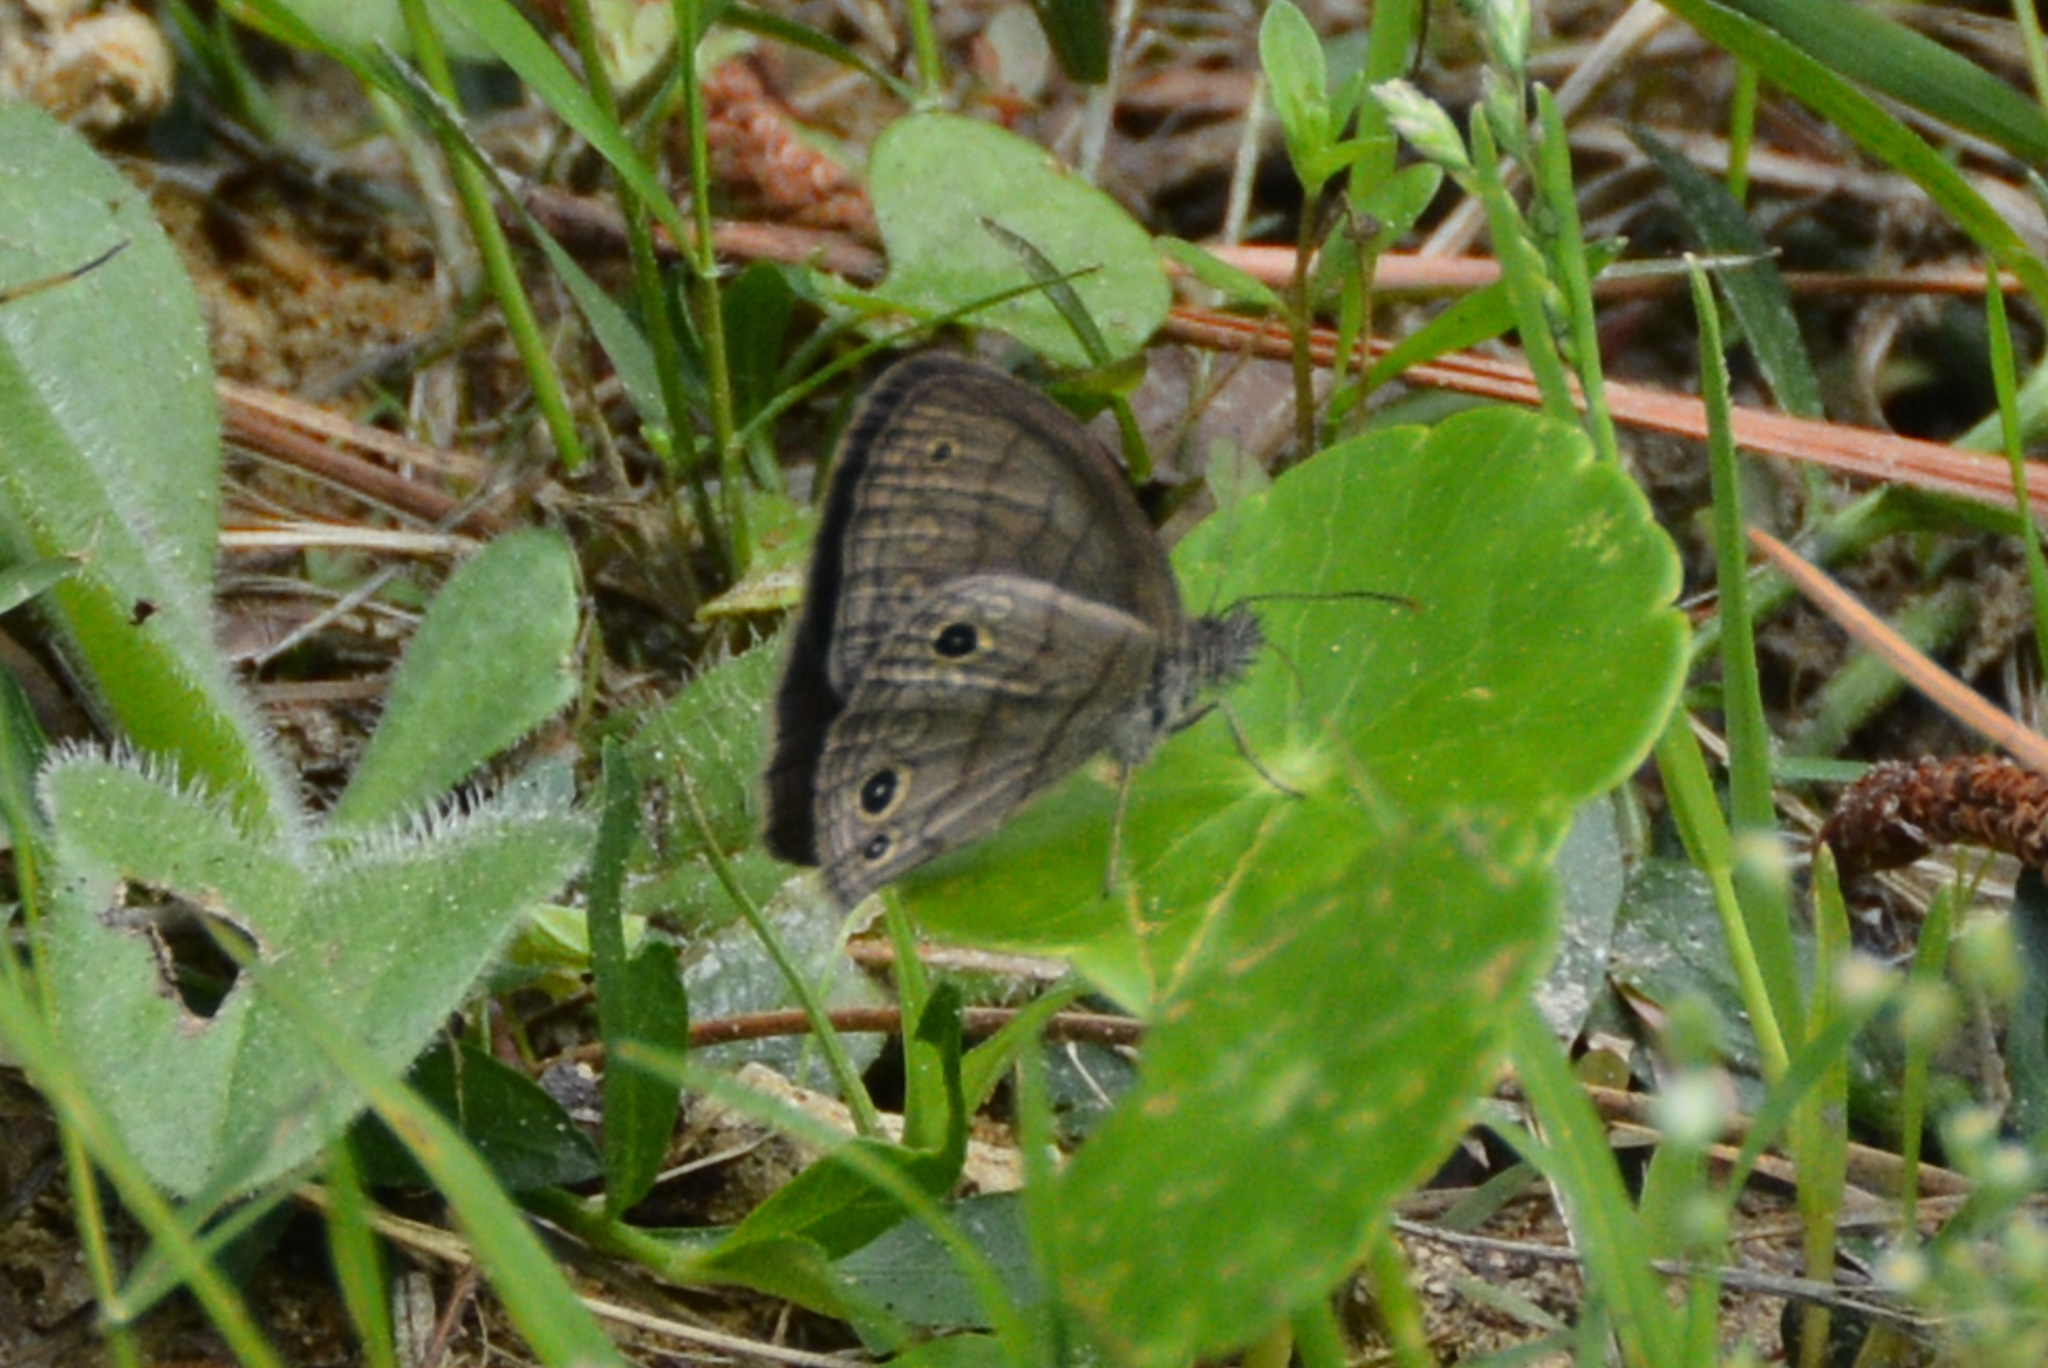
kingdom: Animalia
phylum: Arthropoda
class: Insecta
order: Lepidoptera
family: Nymphalidae
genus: Hermeuptychia
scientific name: Hermeuptychia hermes
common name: Hermes satyr
